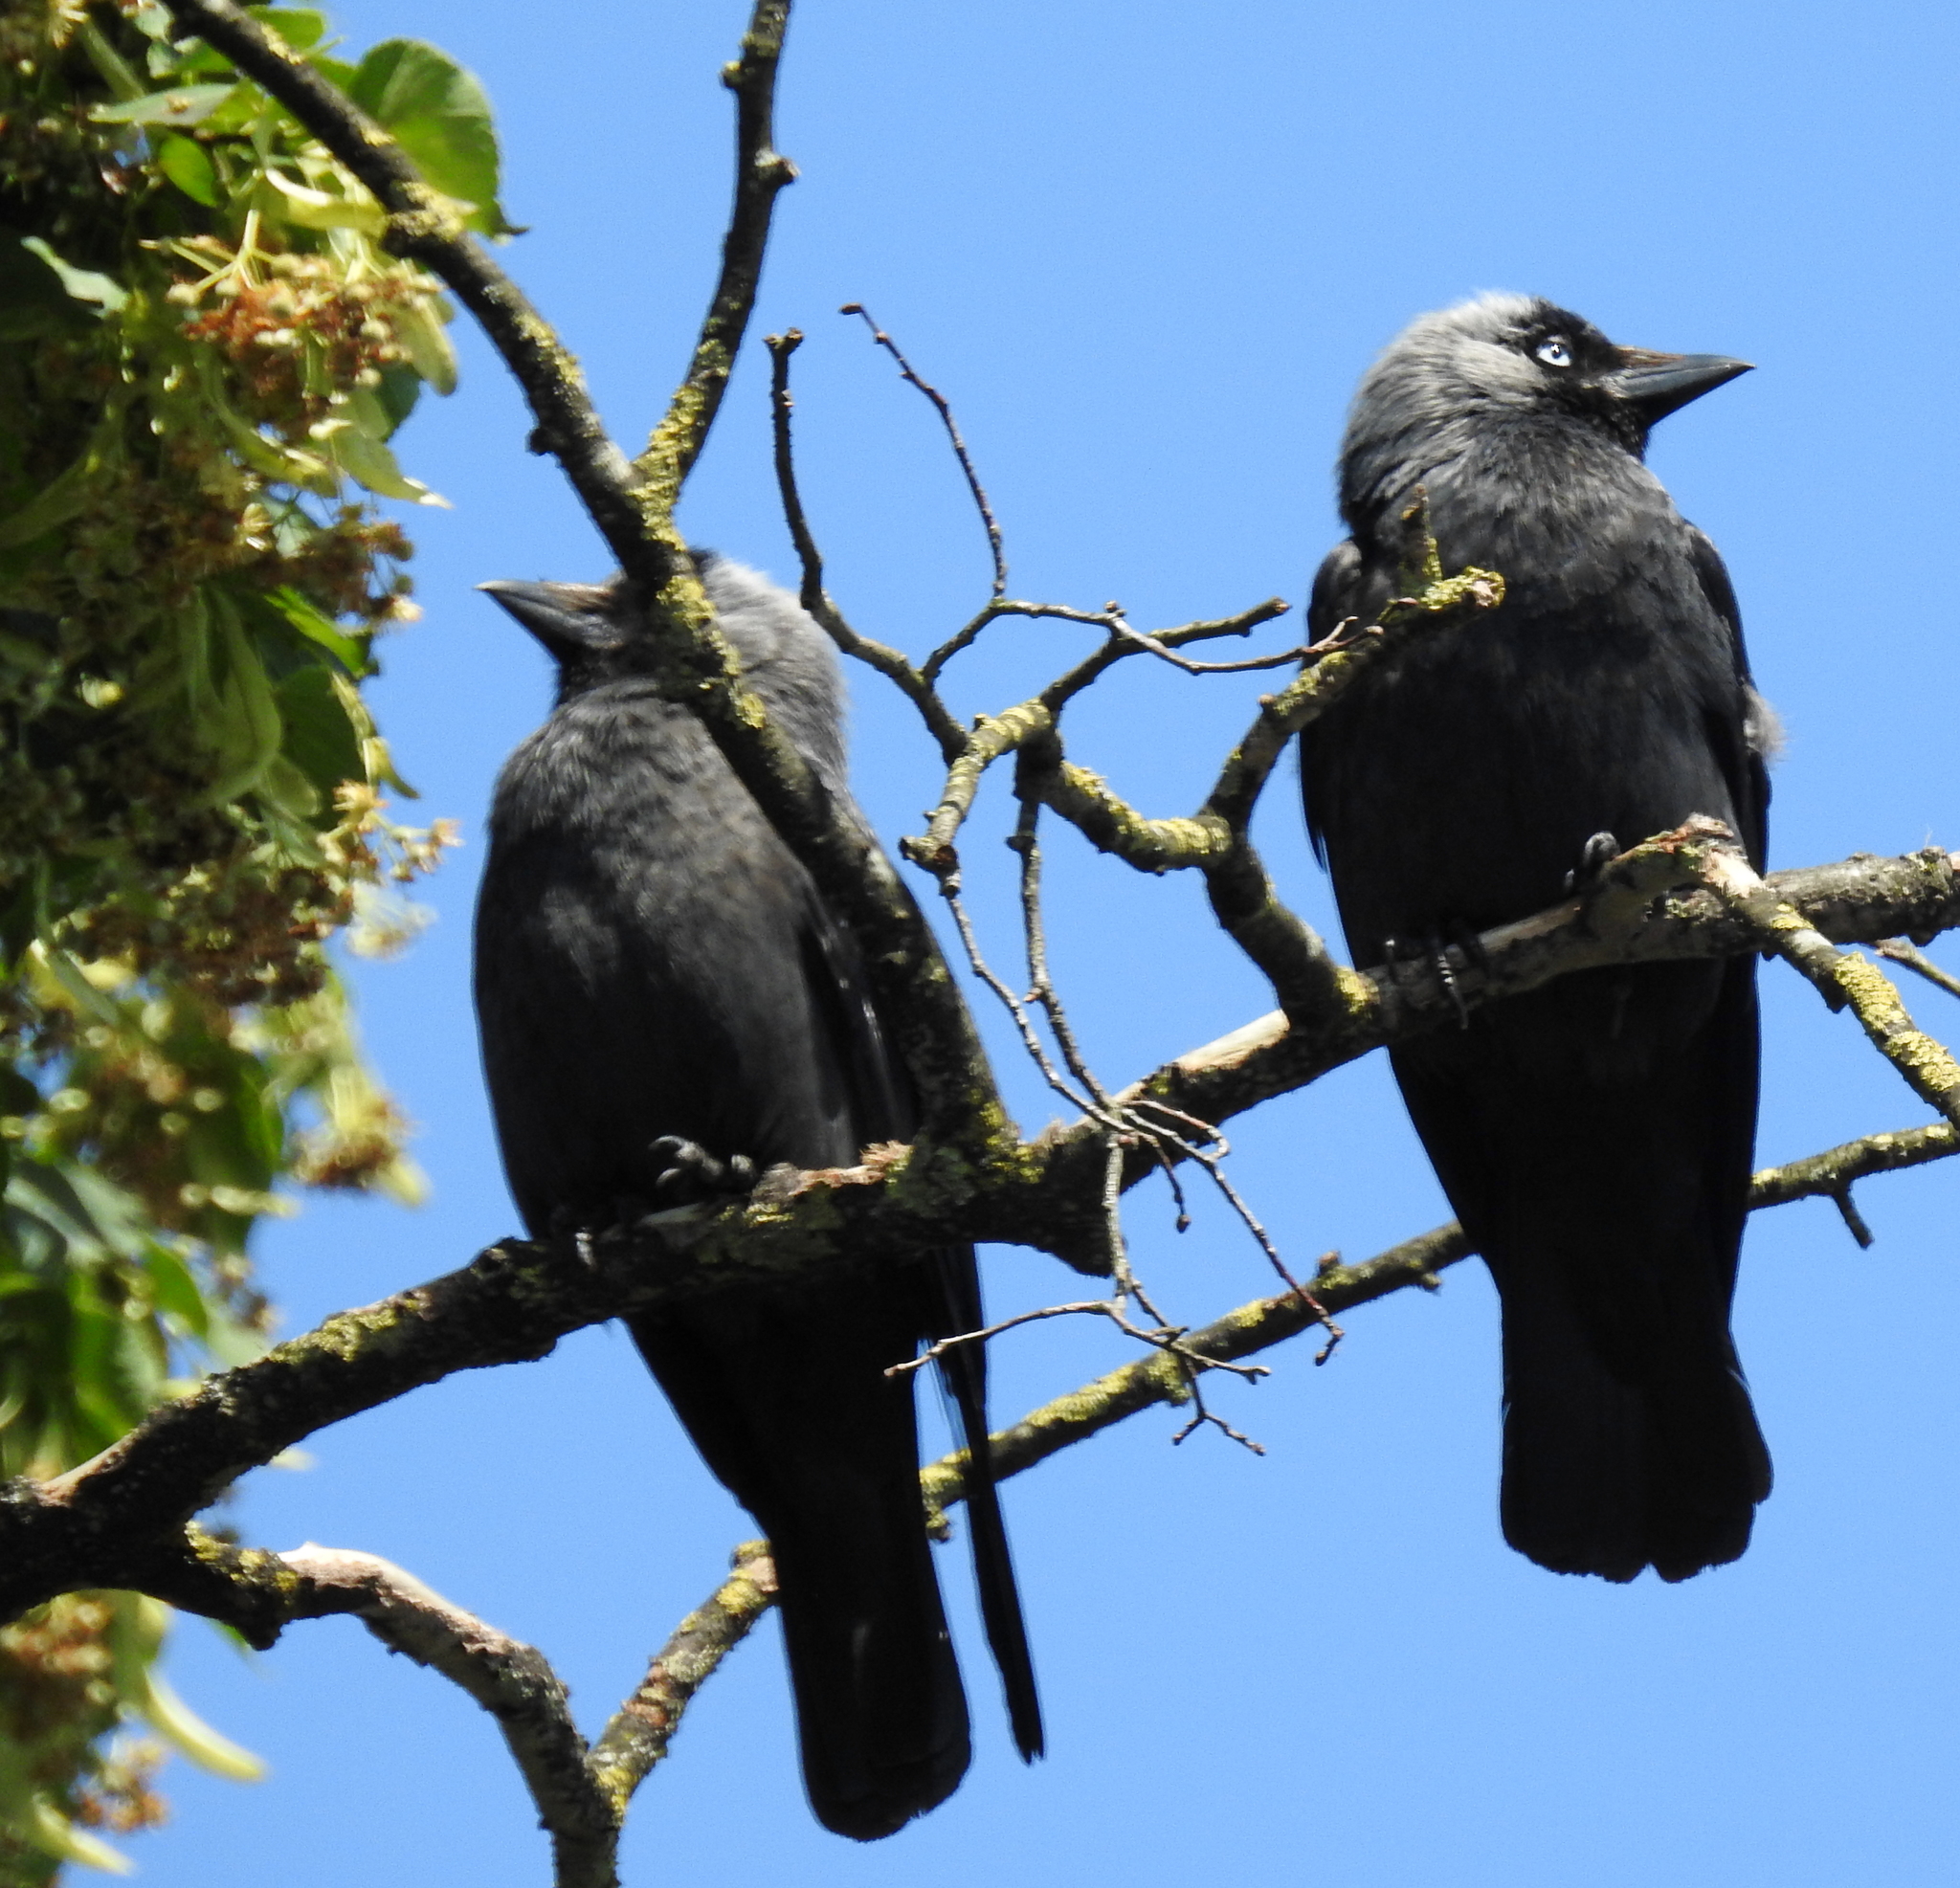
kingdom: Animalia
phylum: Chordata
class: Aves
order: Passeriformes
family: Corvidae
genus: Coloeus
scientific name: Coloeus monedula
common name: Western jackdaw
